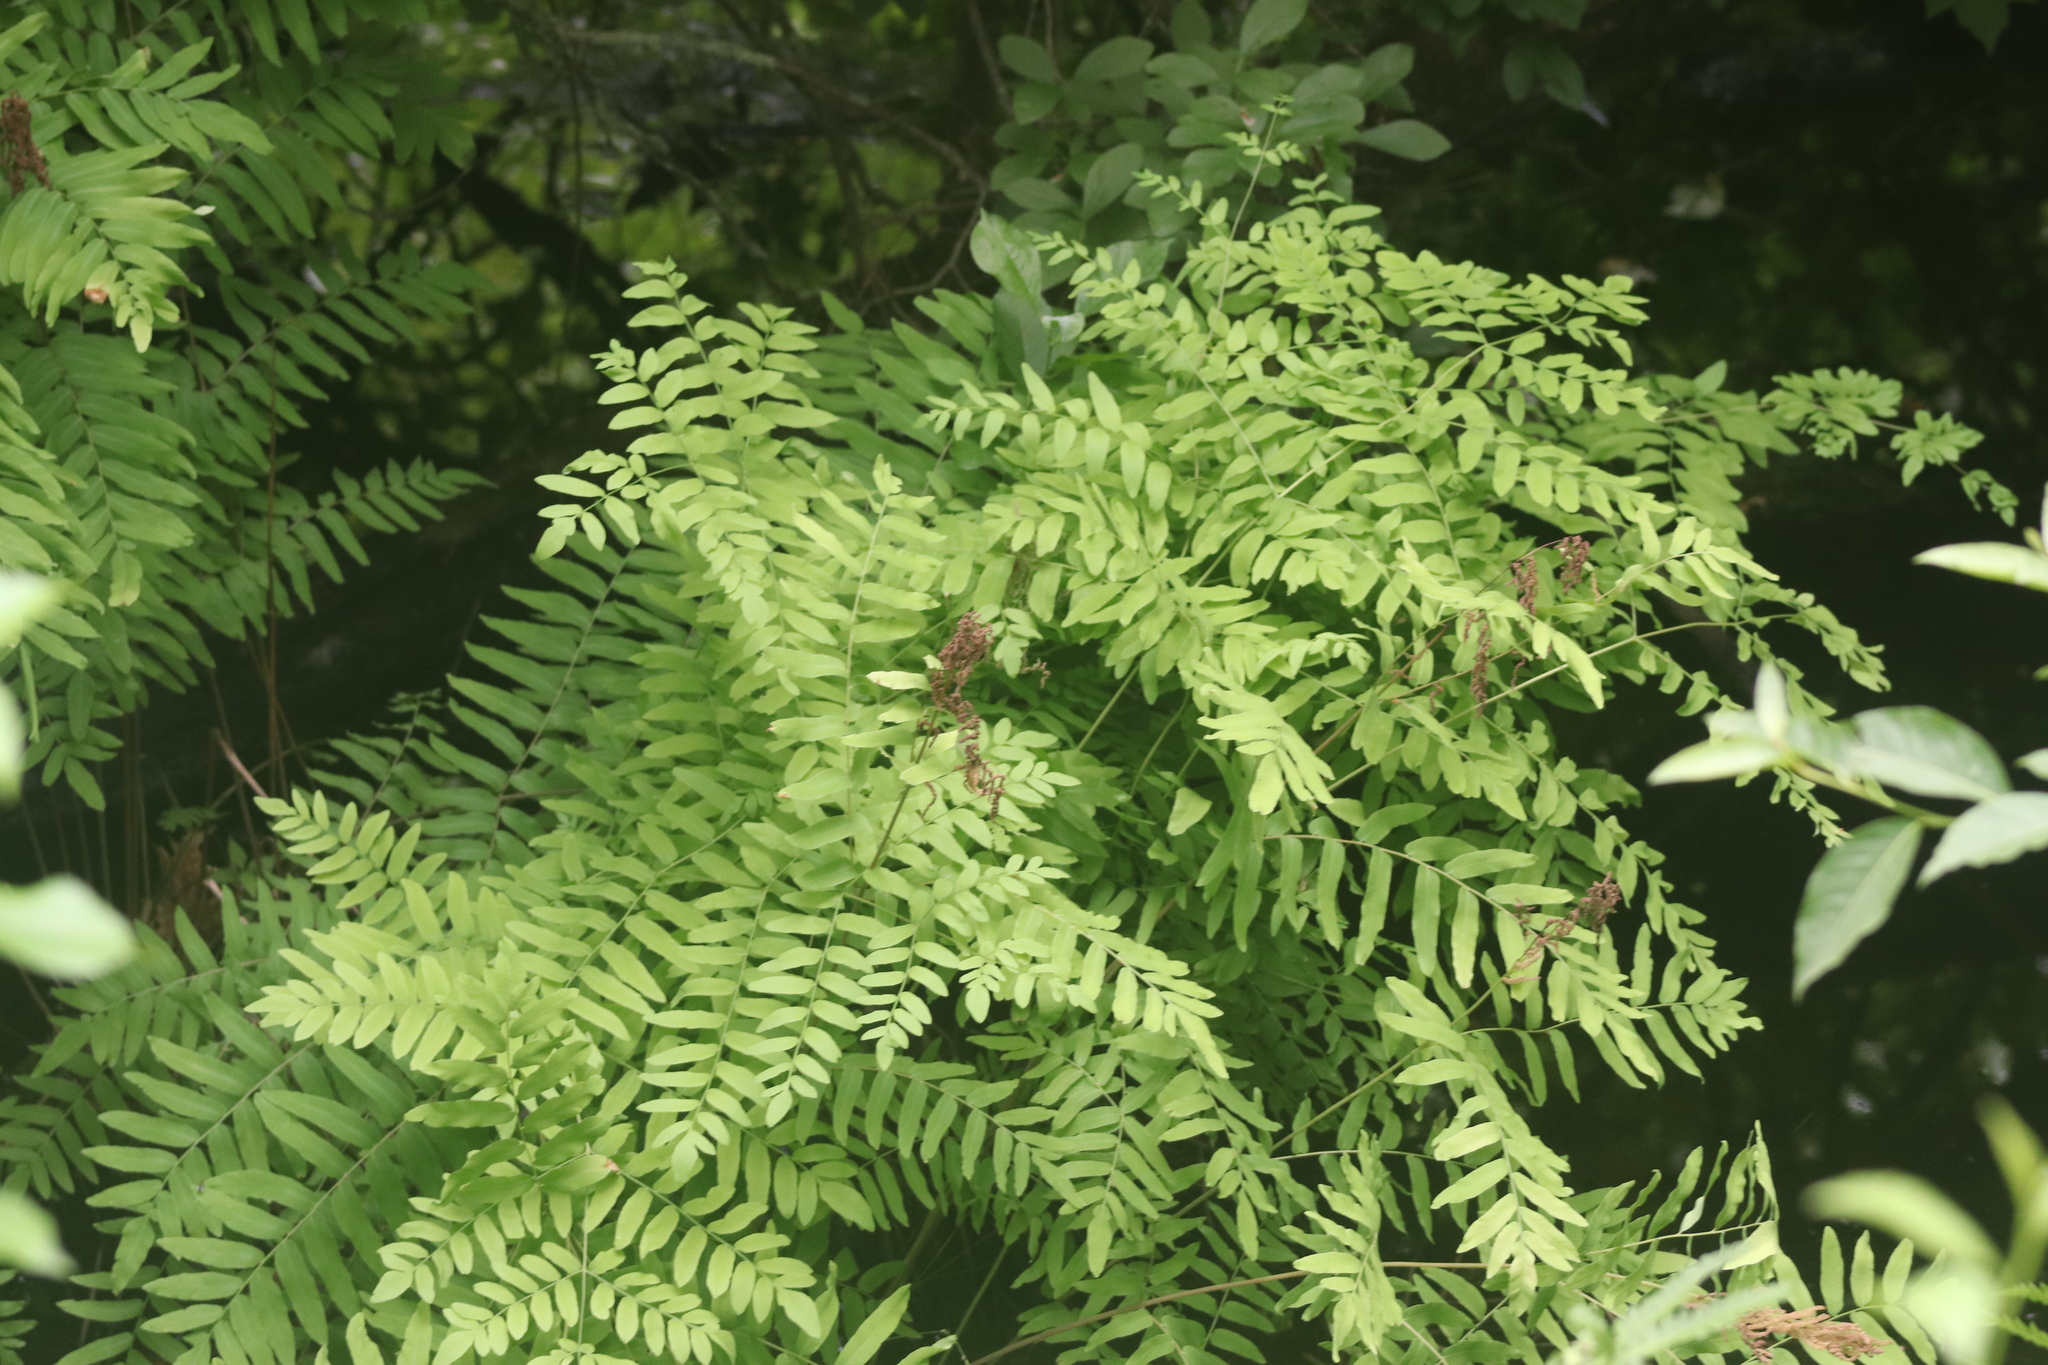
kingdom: Plantae
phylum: Tracheophyta
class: Polypodiopsida
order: Osmundales
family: Osmundaceae
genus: Osmunda
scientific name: Osmunda spectabilis
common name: American royal fern
